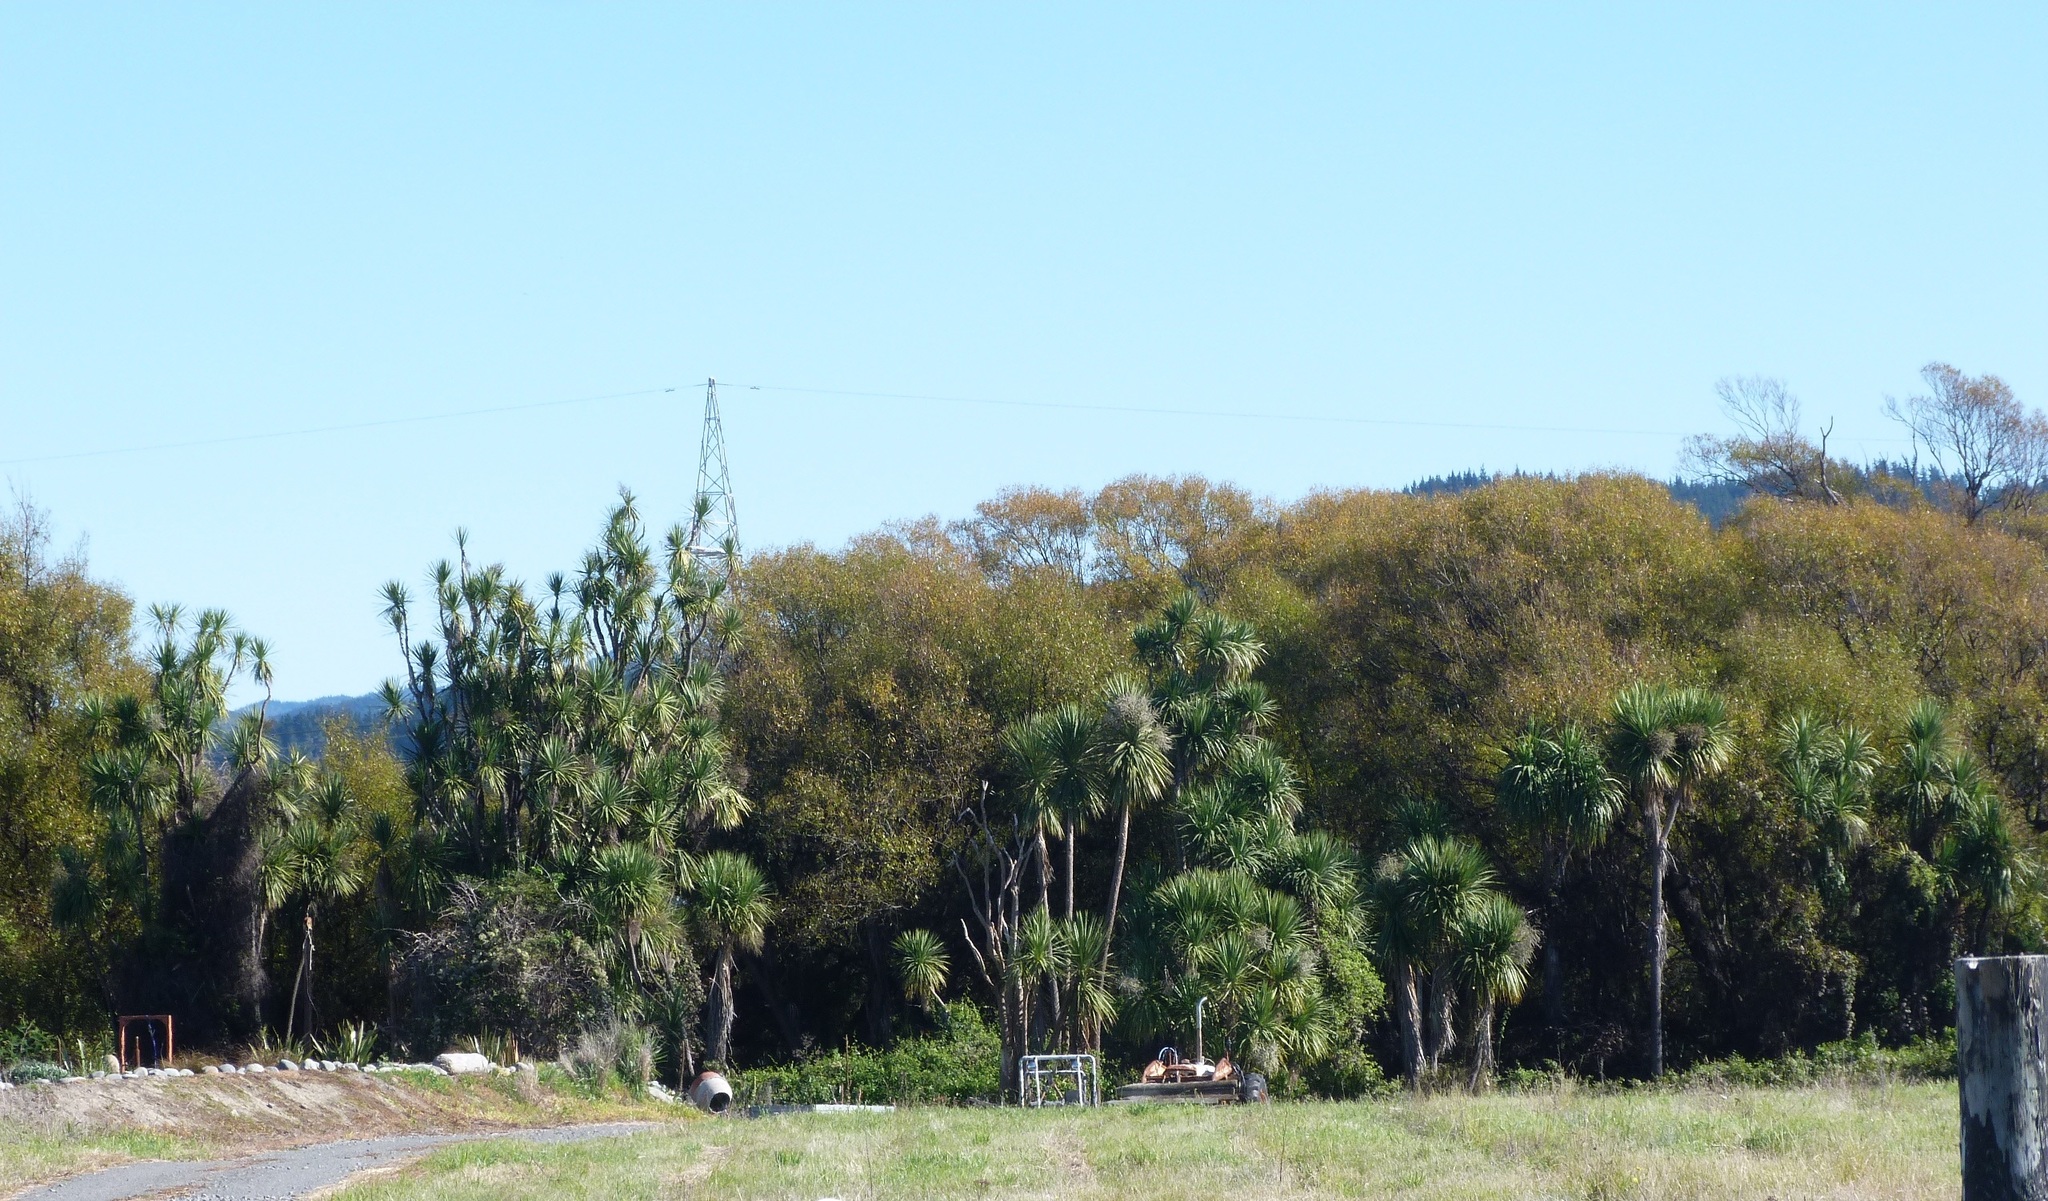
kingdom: Plantae
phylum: Tracheophyta
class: Liliopsida
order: Asparagales
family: Asparagaceae
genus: Cordyline
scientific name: Cordyline australis
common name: Cabbage-palm
